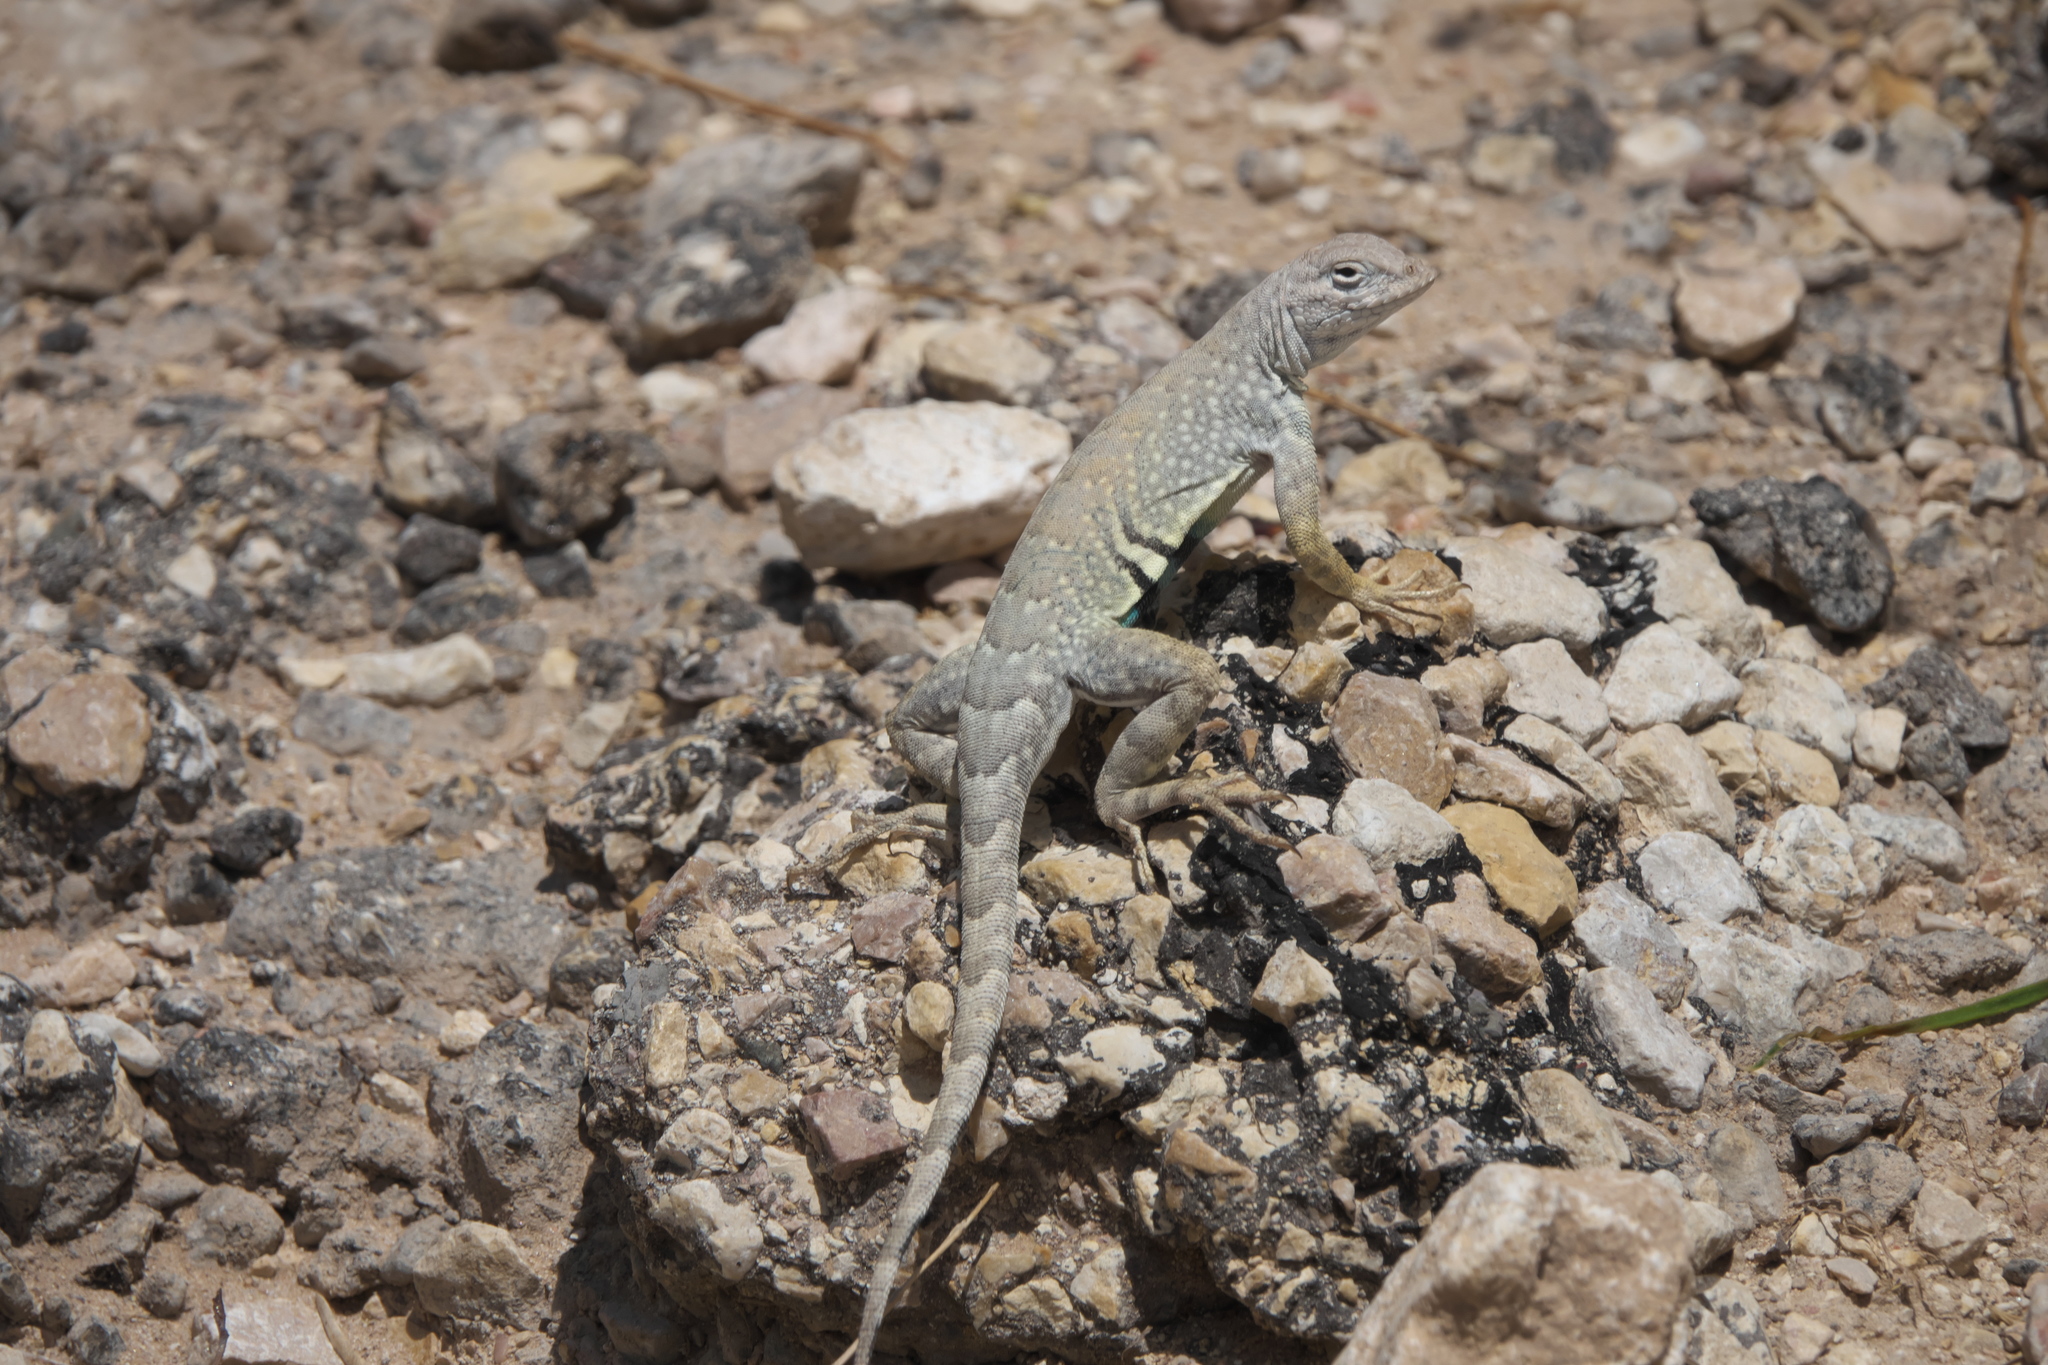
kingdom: Animalia
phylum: Chordata
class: Squamata
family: Phrynosomatidae
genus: Cophosaurus
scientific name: Cophosaurus texanus
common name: Greater earless lizard
